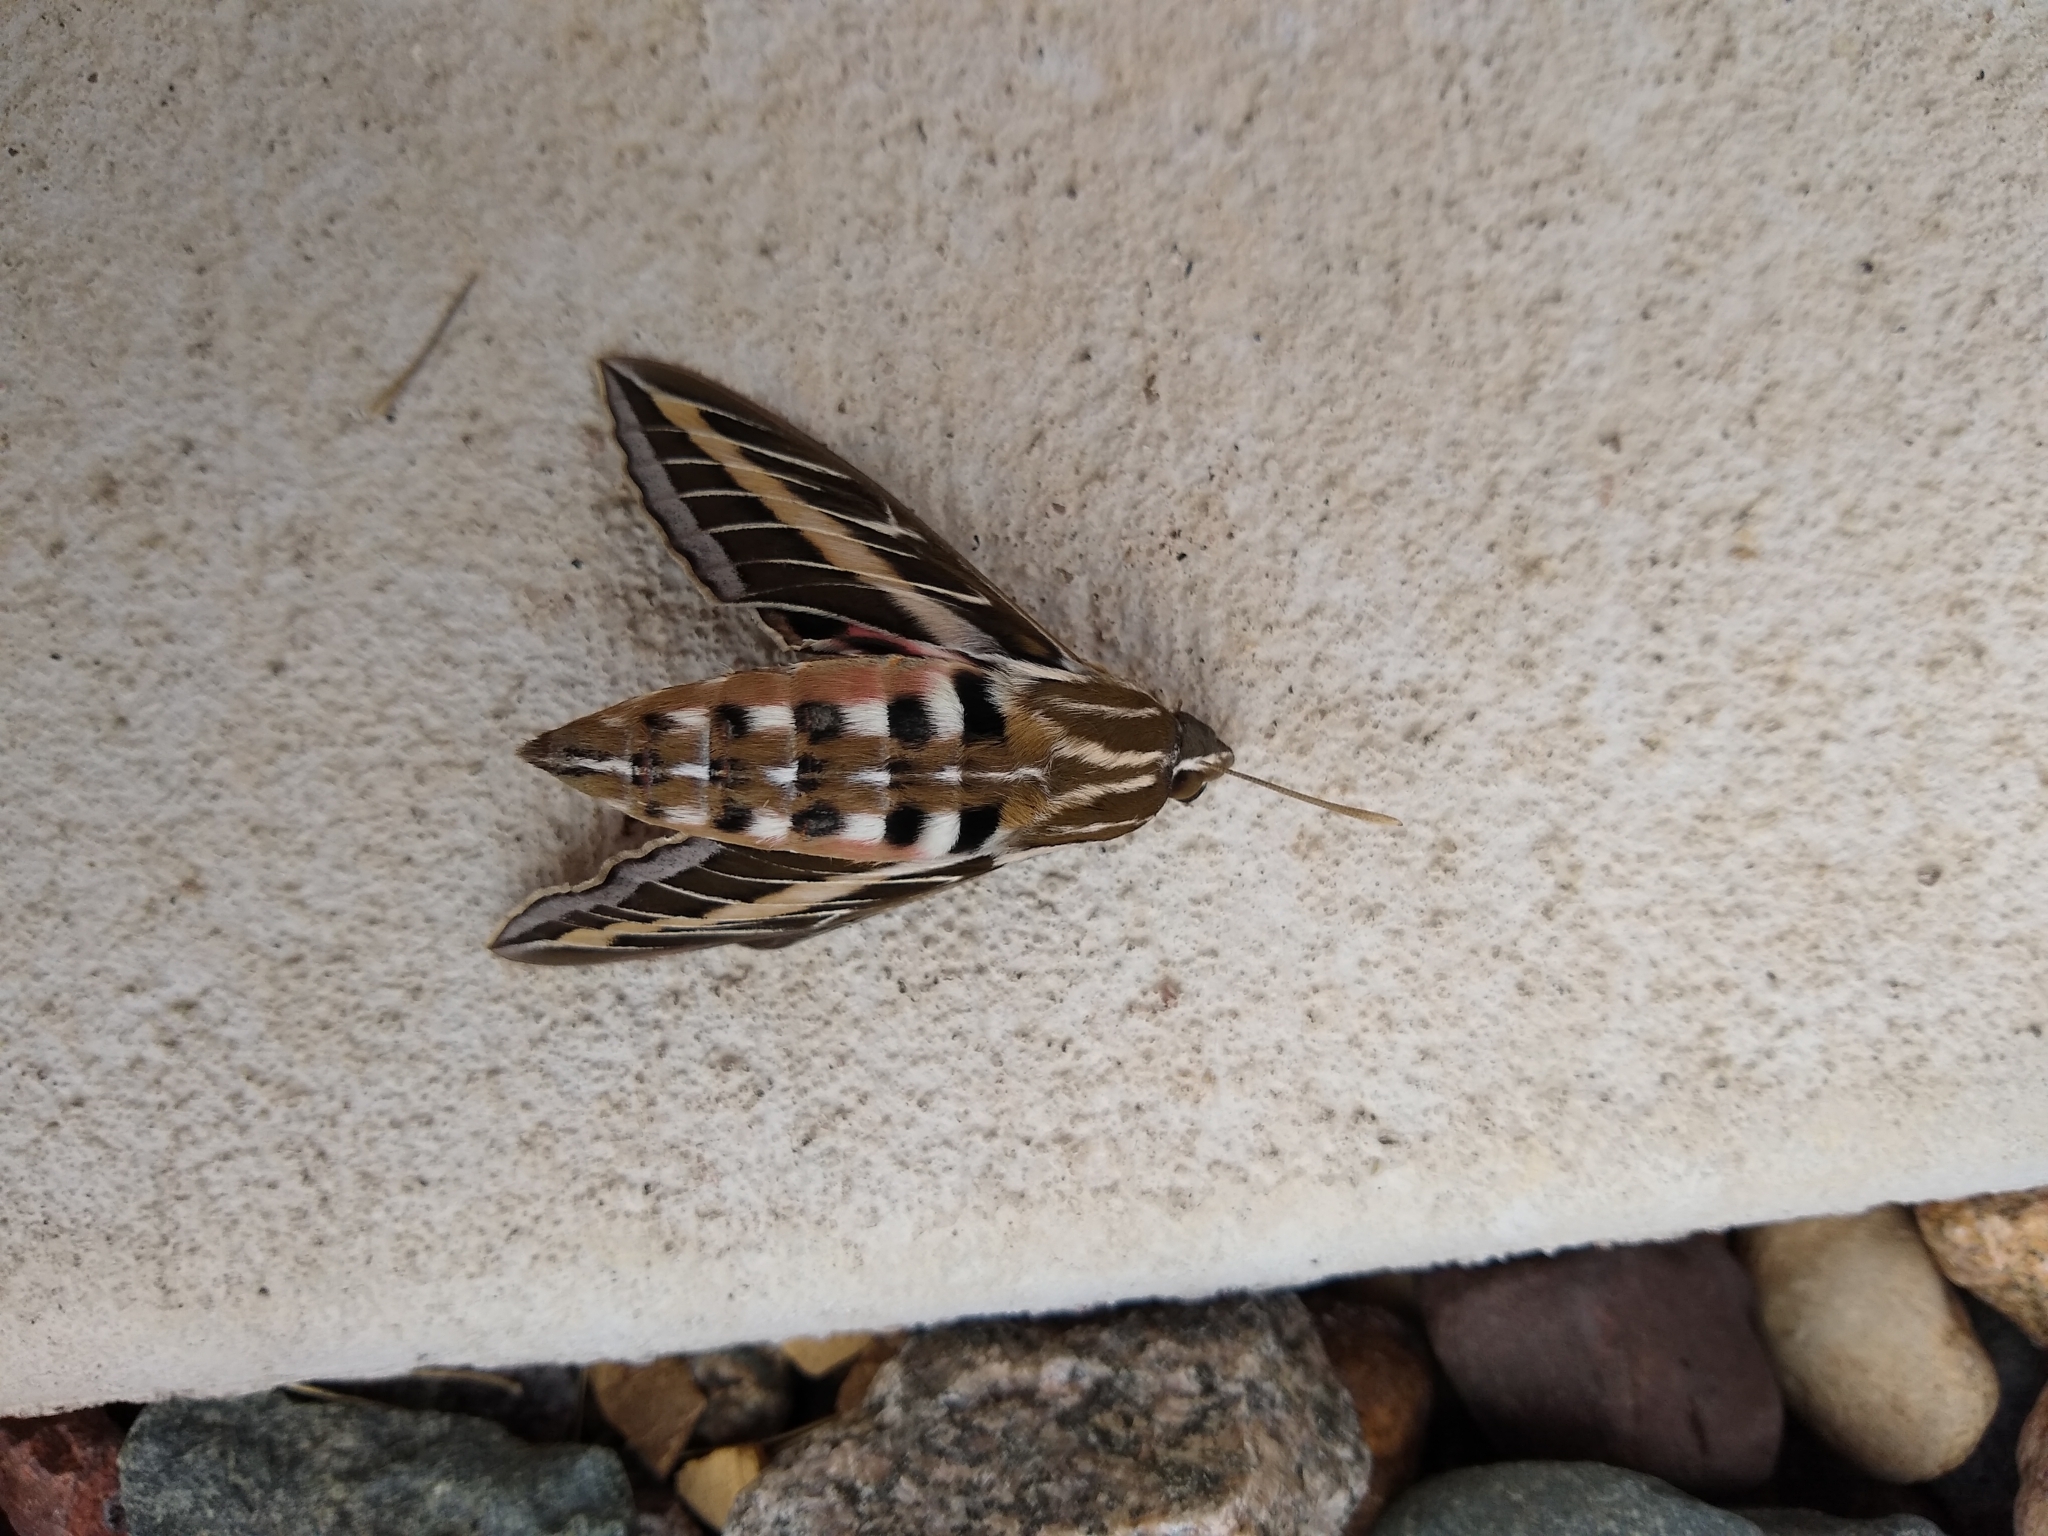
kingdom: Animalia
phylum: Arthropoda
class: Insecta
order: Lepidoptera
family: Sphingidae
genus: Hyles
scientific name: Hyles lineata
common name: White-lined sphinx
